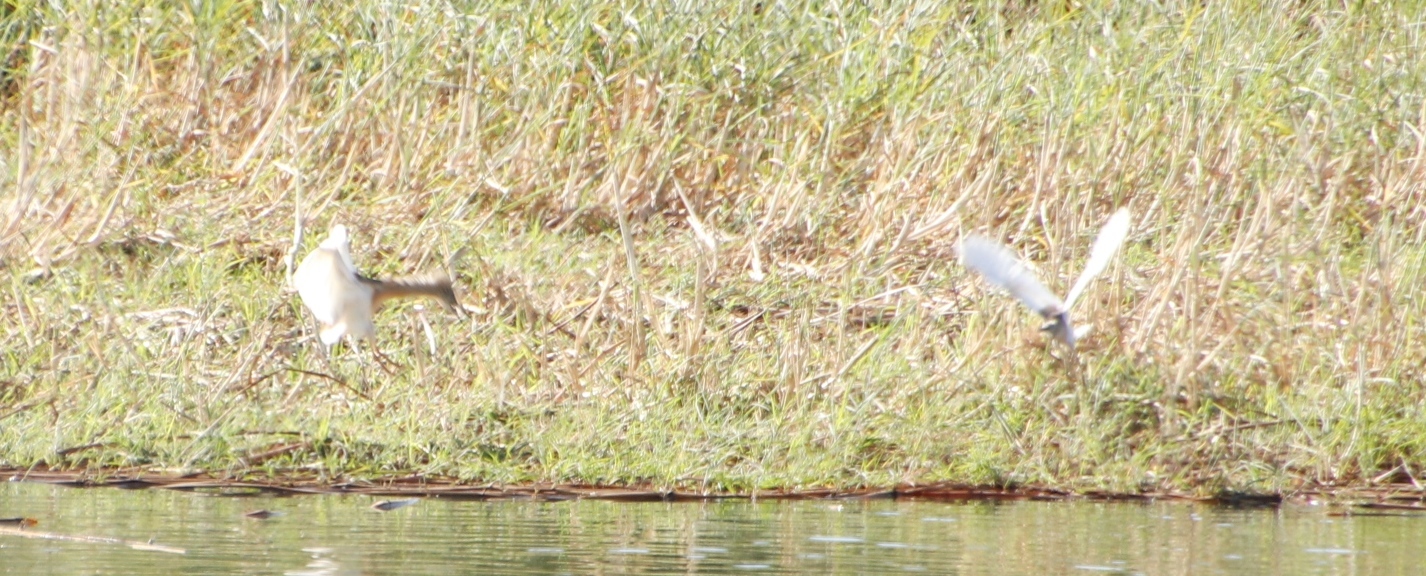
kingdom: Animalia
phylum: Chordata
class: Aves
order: Pelecaniformes
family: Ardeidae
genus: Ardeola
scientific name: Ardeola ralloides
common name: Squacco heron
